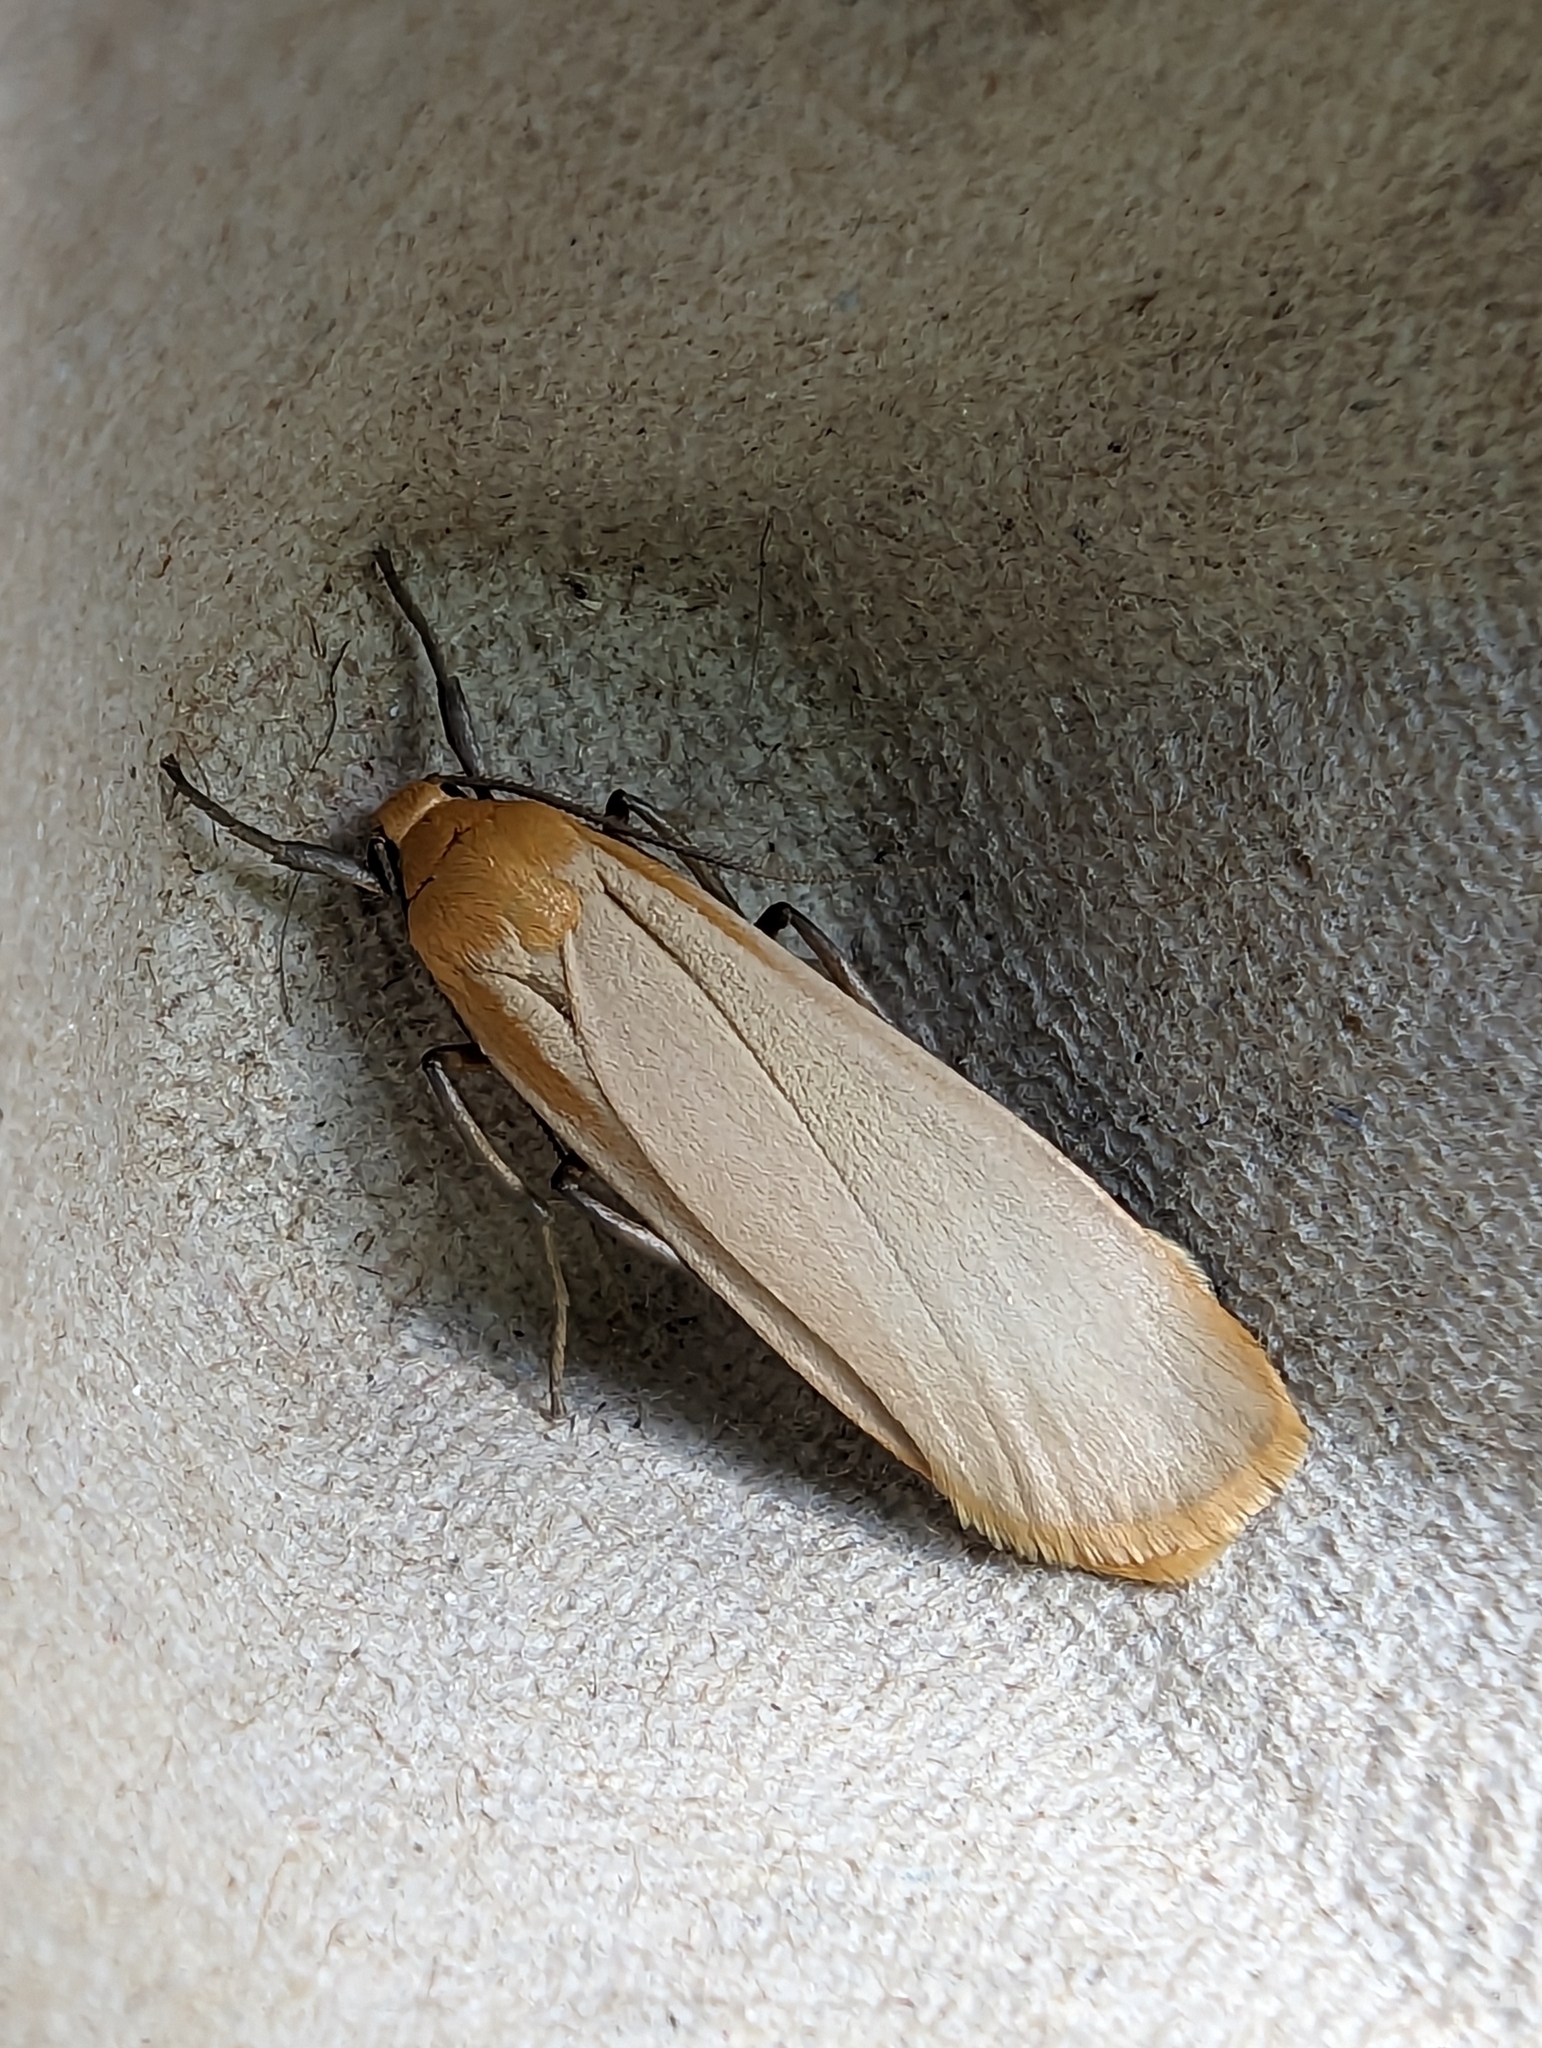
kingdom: Animalia
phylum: Arthropoda
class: Insecta
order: Lepidoptera
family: Erebidae
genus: Katha
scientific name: Katha depressa
